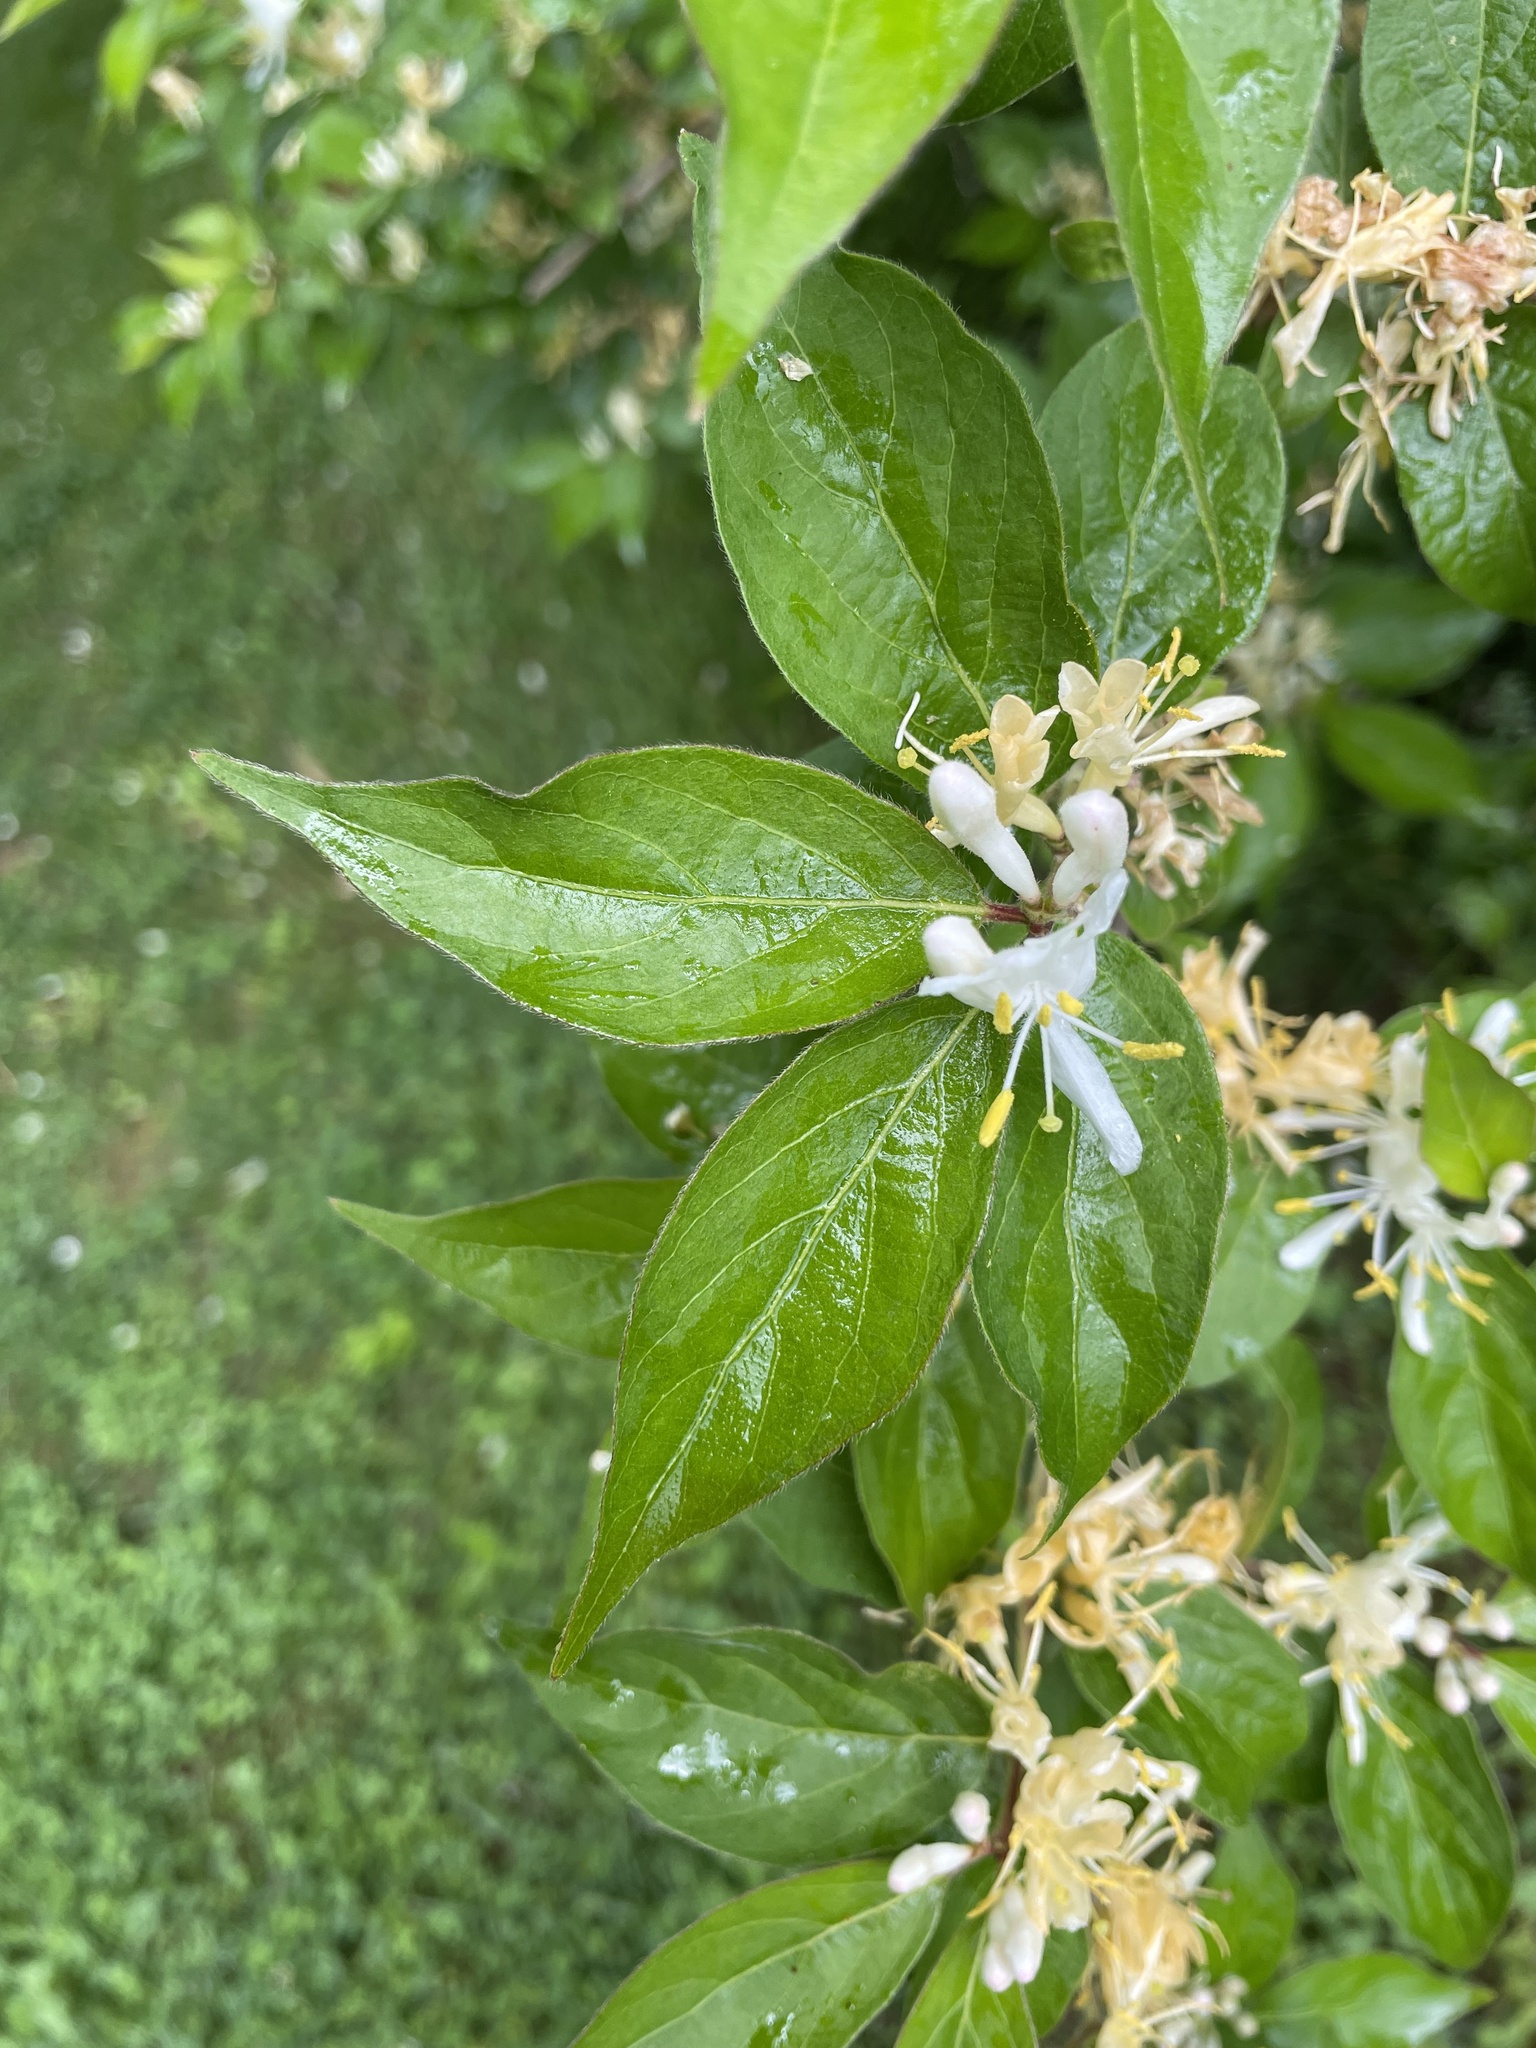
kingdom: Plantae
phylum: Tracheophyta
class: Magnoliopsida
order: Dipsacales
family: Caprifoliaceae
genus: Lonicera
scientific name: Lonicera maackii
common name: Amur honeysuckle
